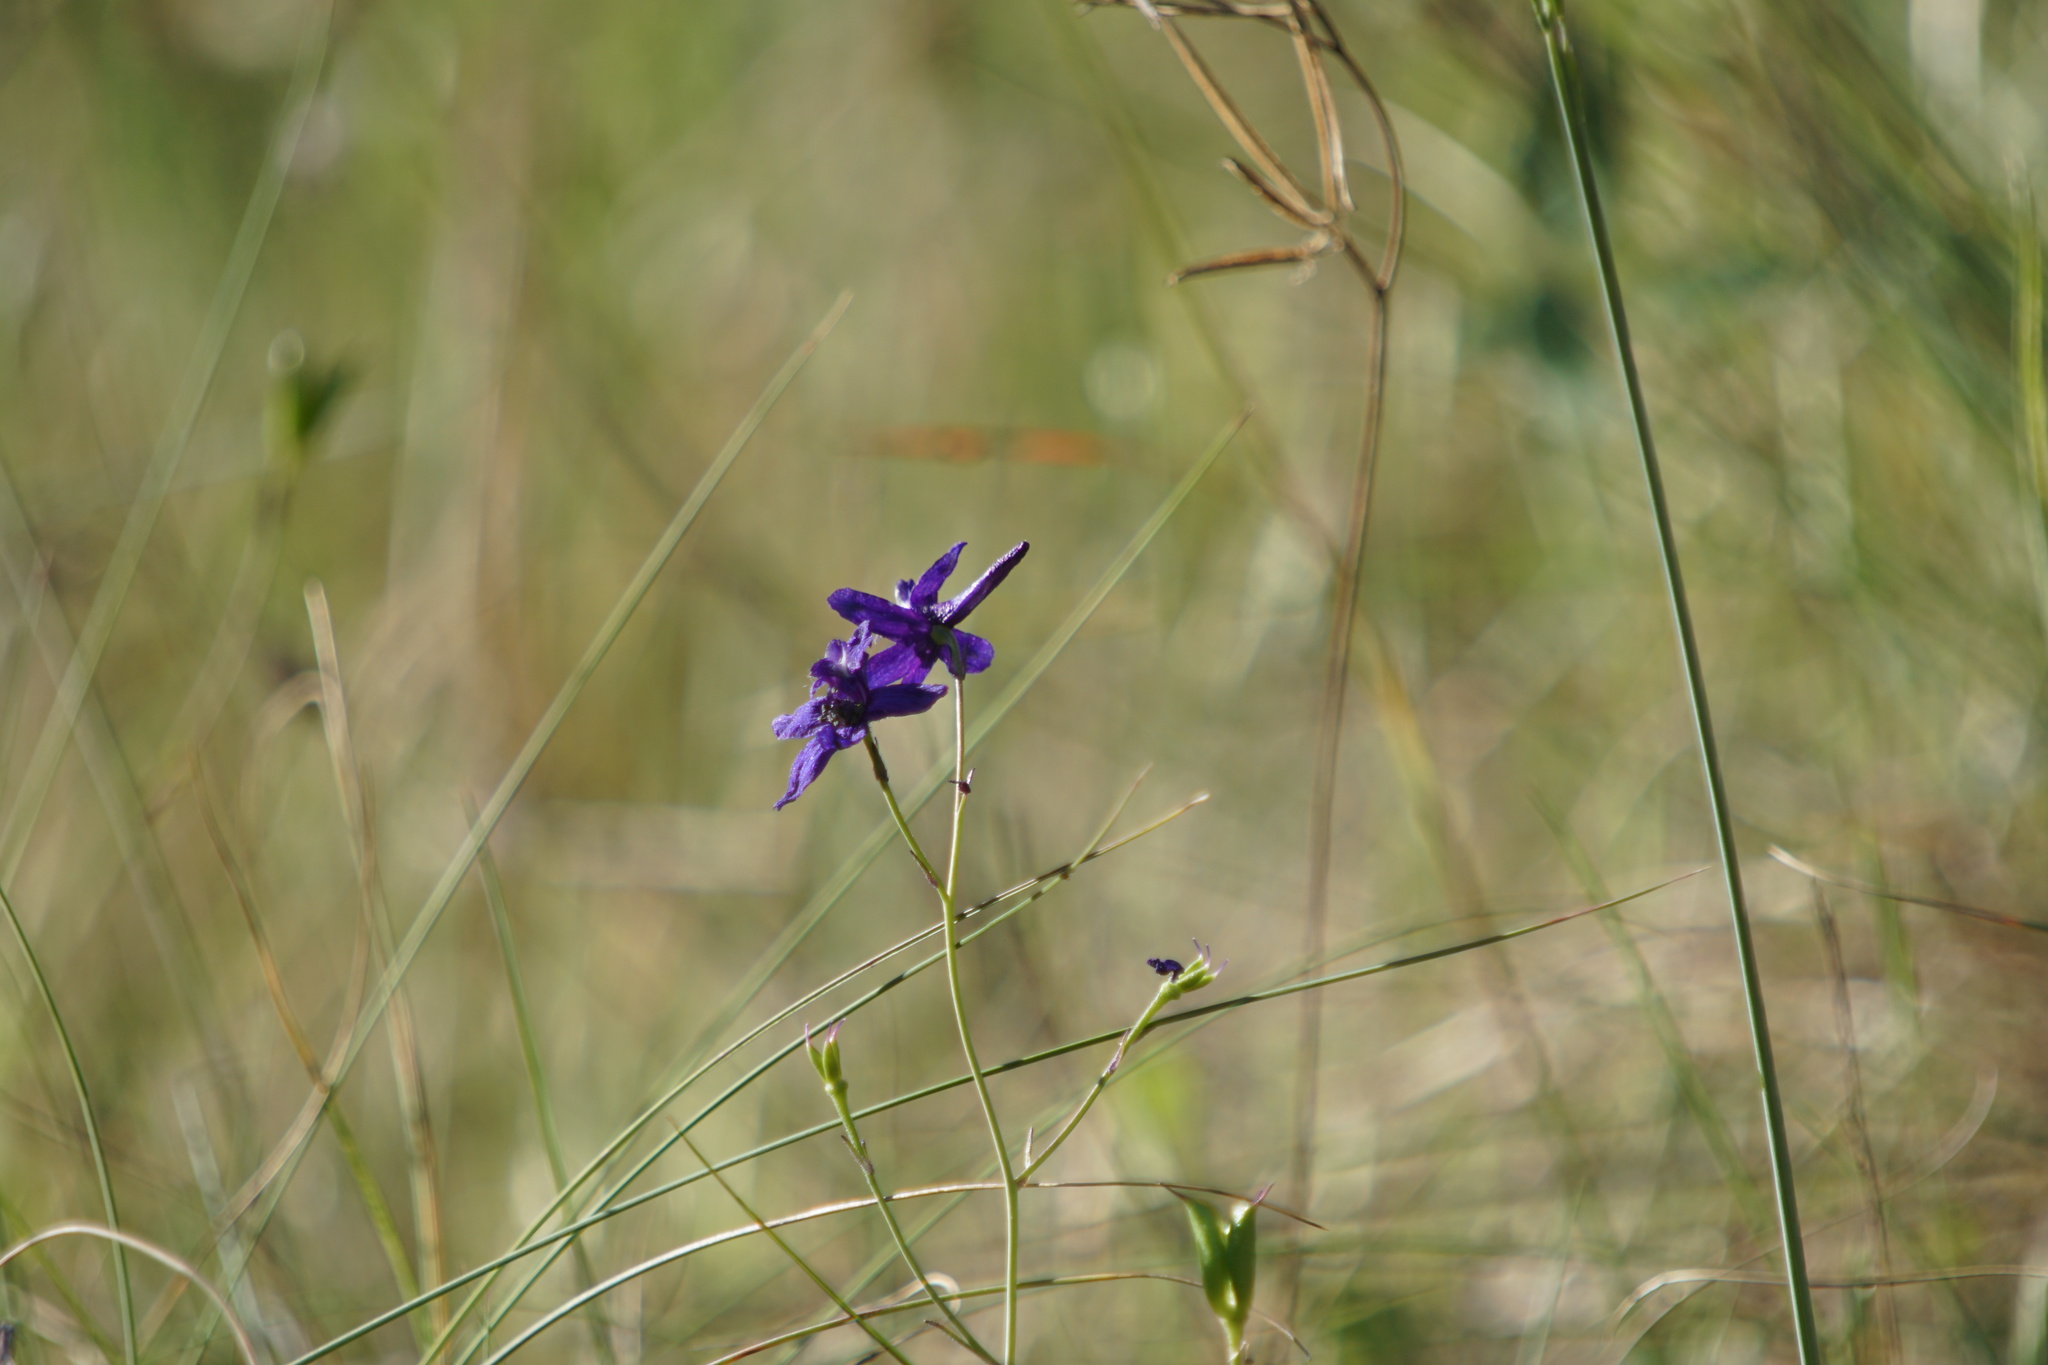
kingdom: Plantae
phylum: Tracheophyta
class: Magnoliopsida
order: Ranunculales
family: Ranunculaceae
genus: Delphinium
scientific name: Delphinium patens
